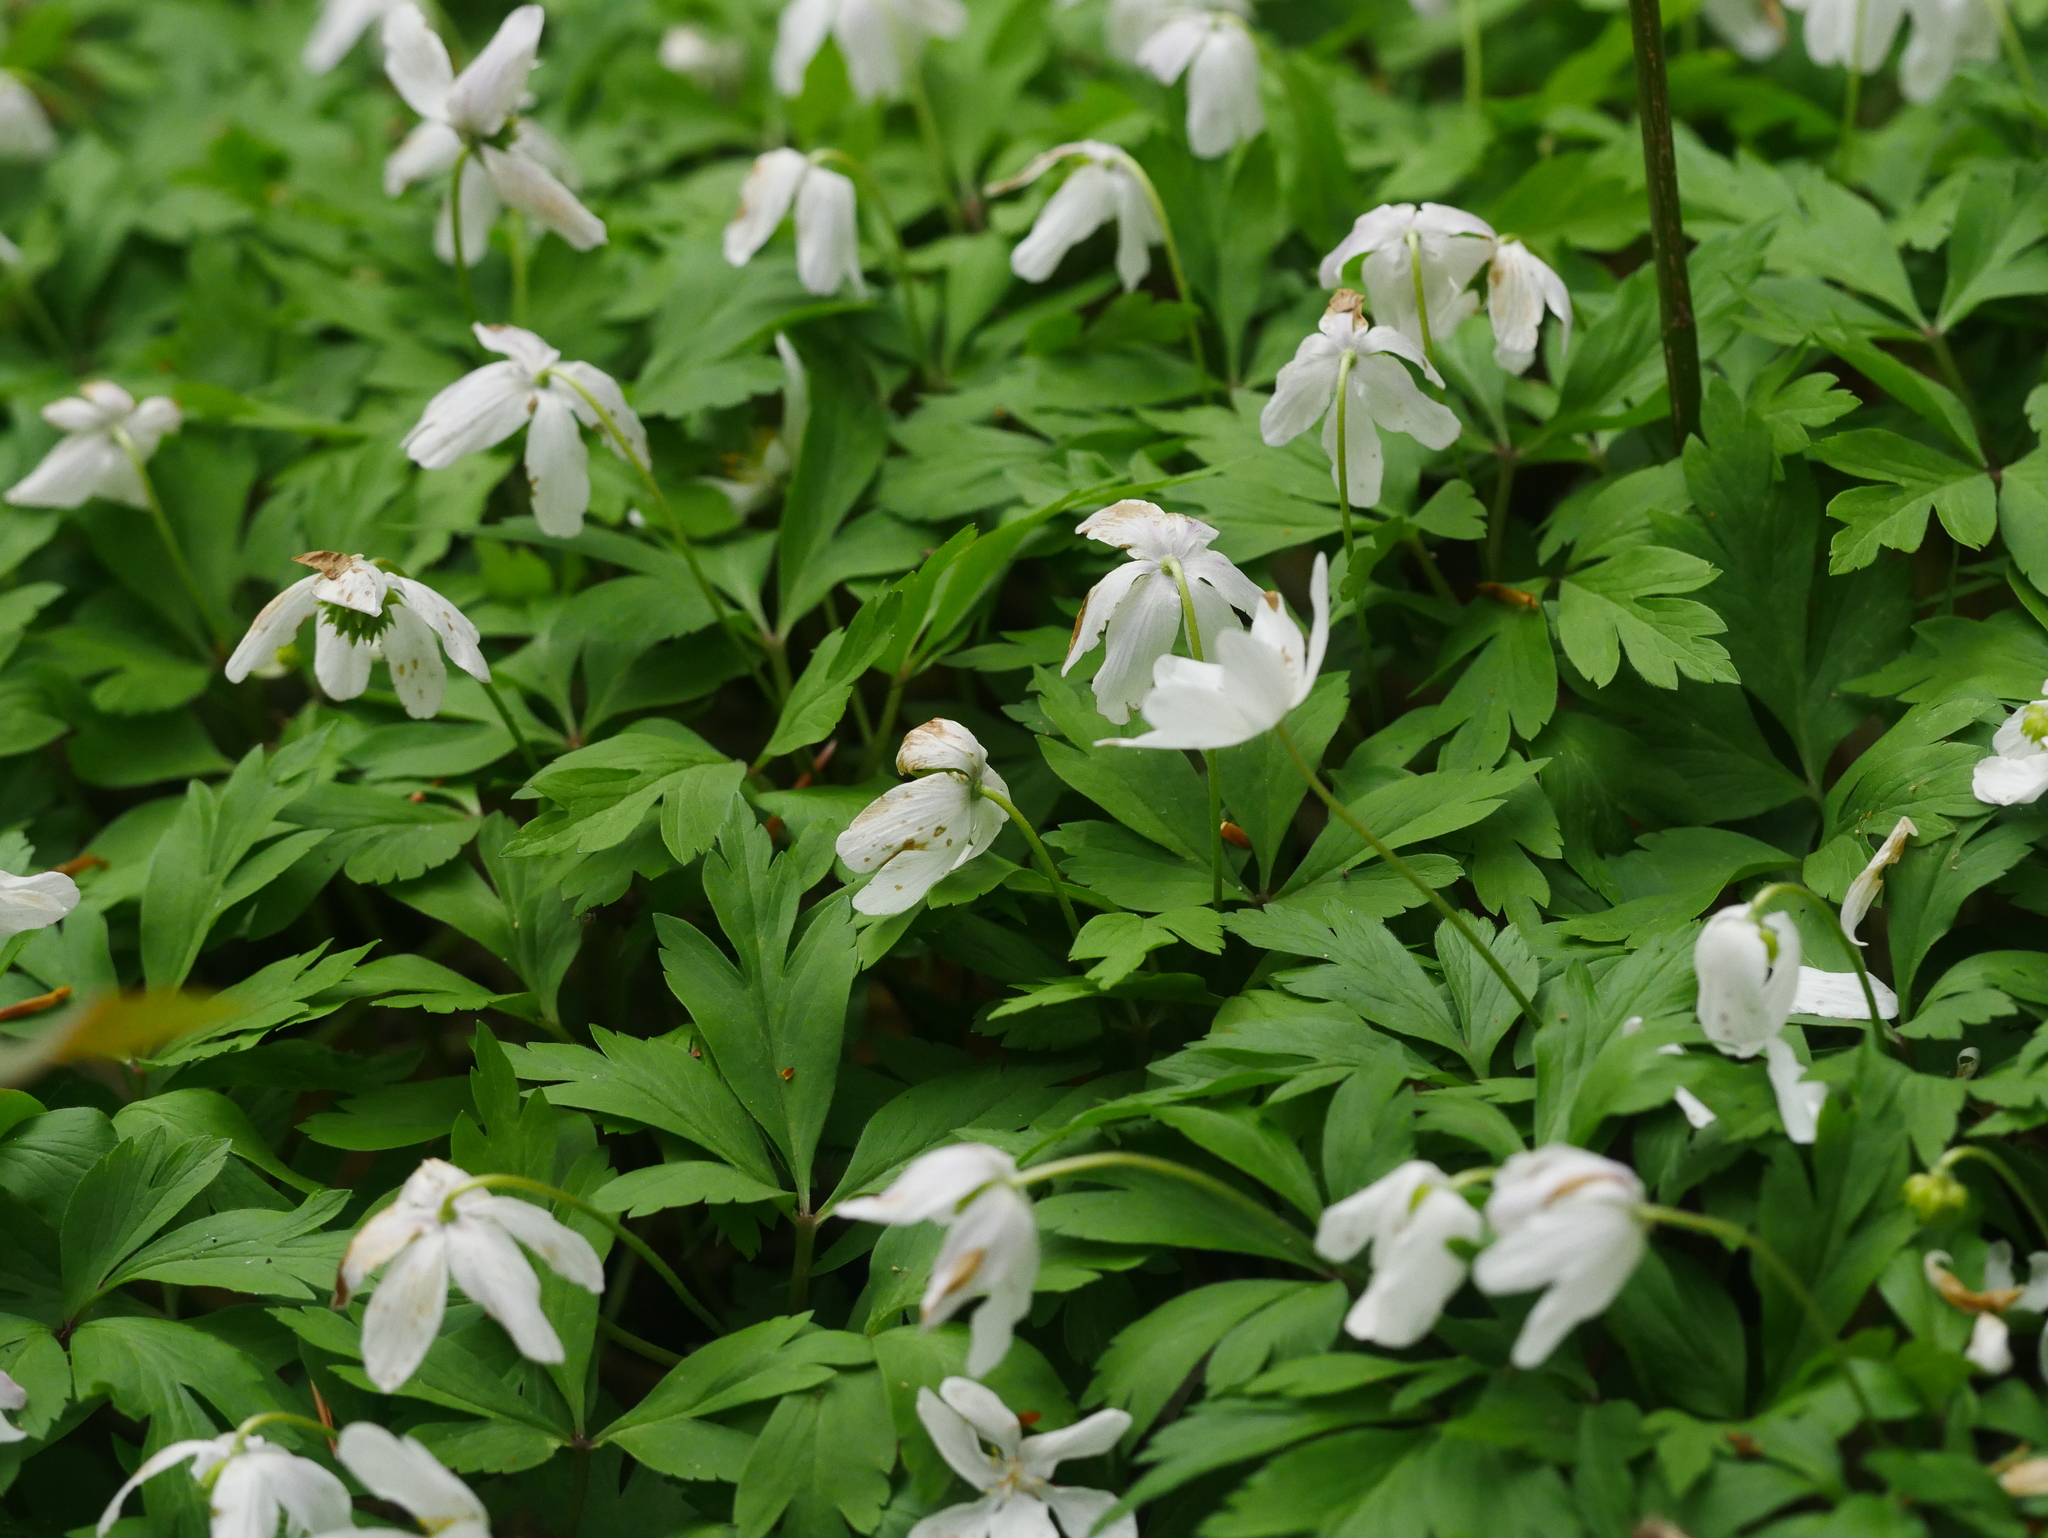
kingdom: Plantae
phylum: Tracheophyta
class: Magnoliopsida
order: Ranunculales
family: Ranunculaceae
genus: Anemone
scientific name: Anemone nemorosa
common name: Wood anemone
